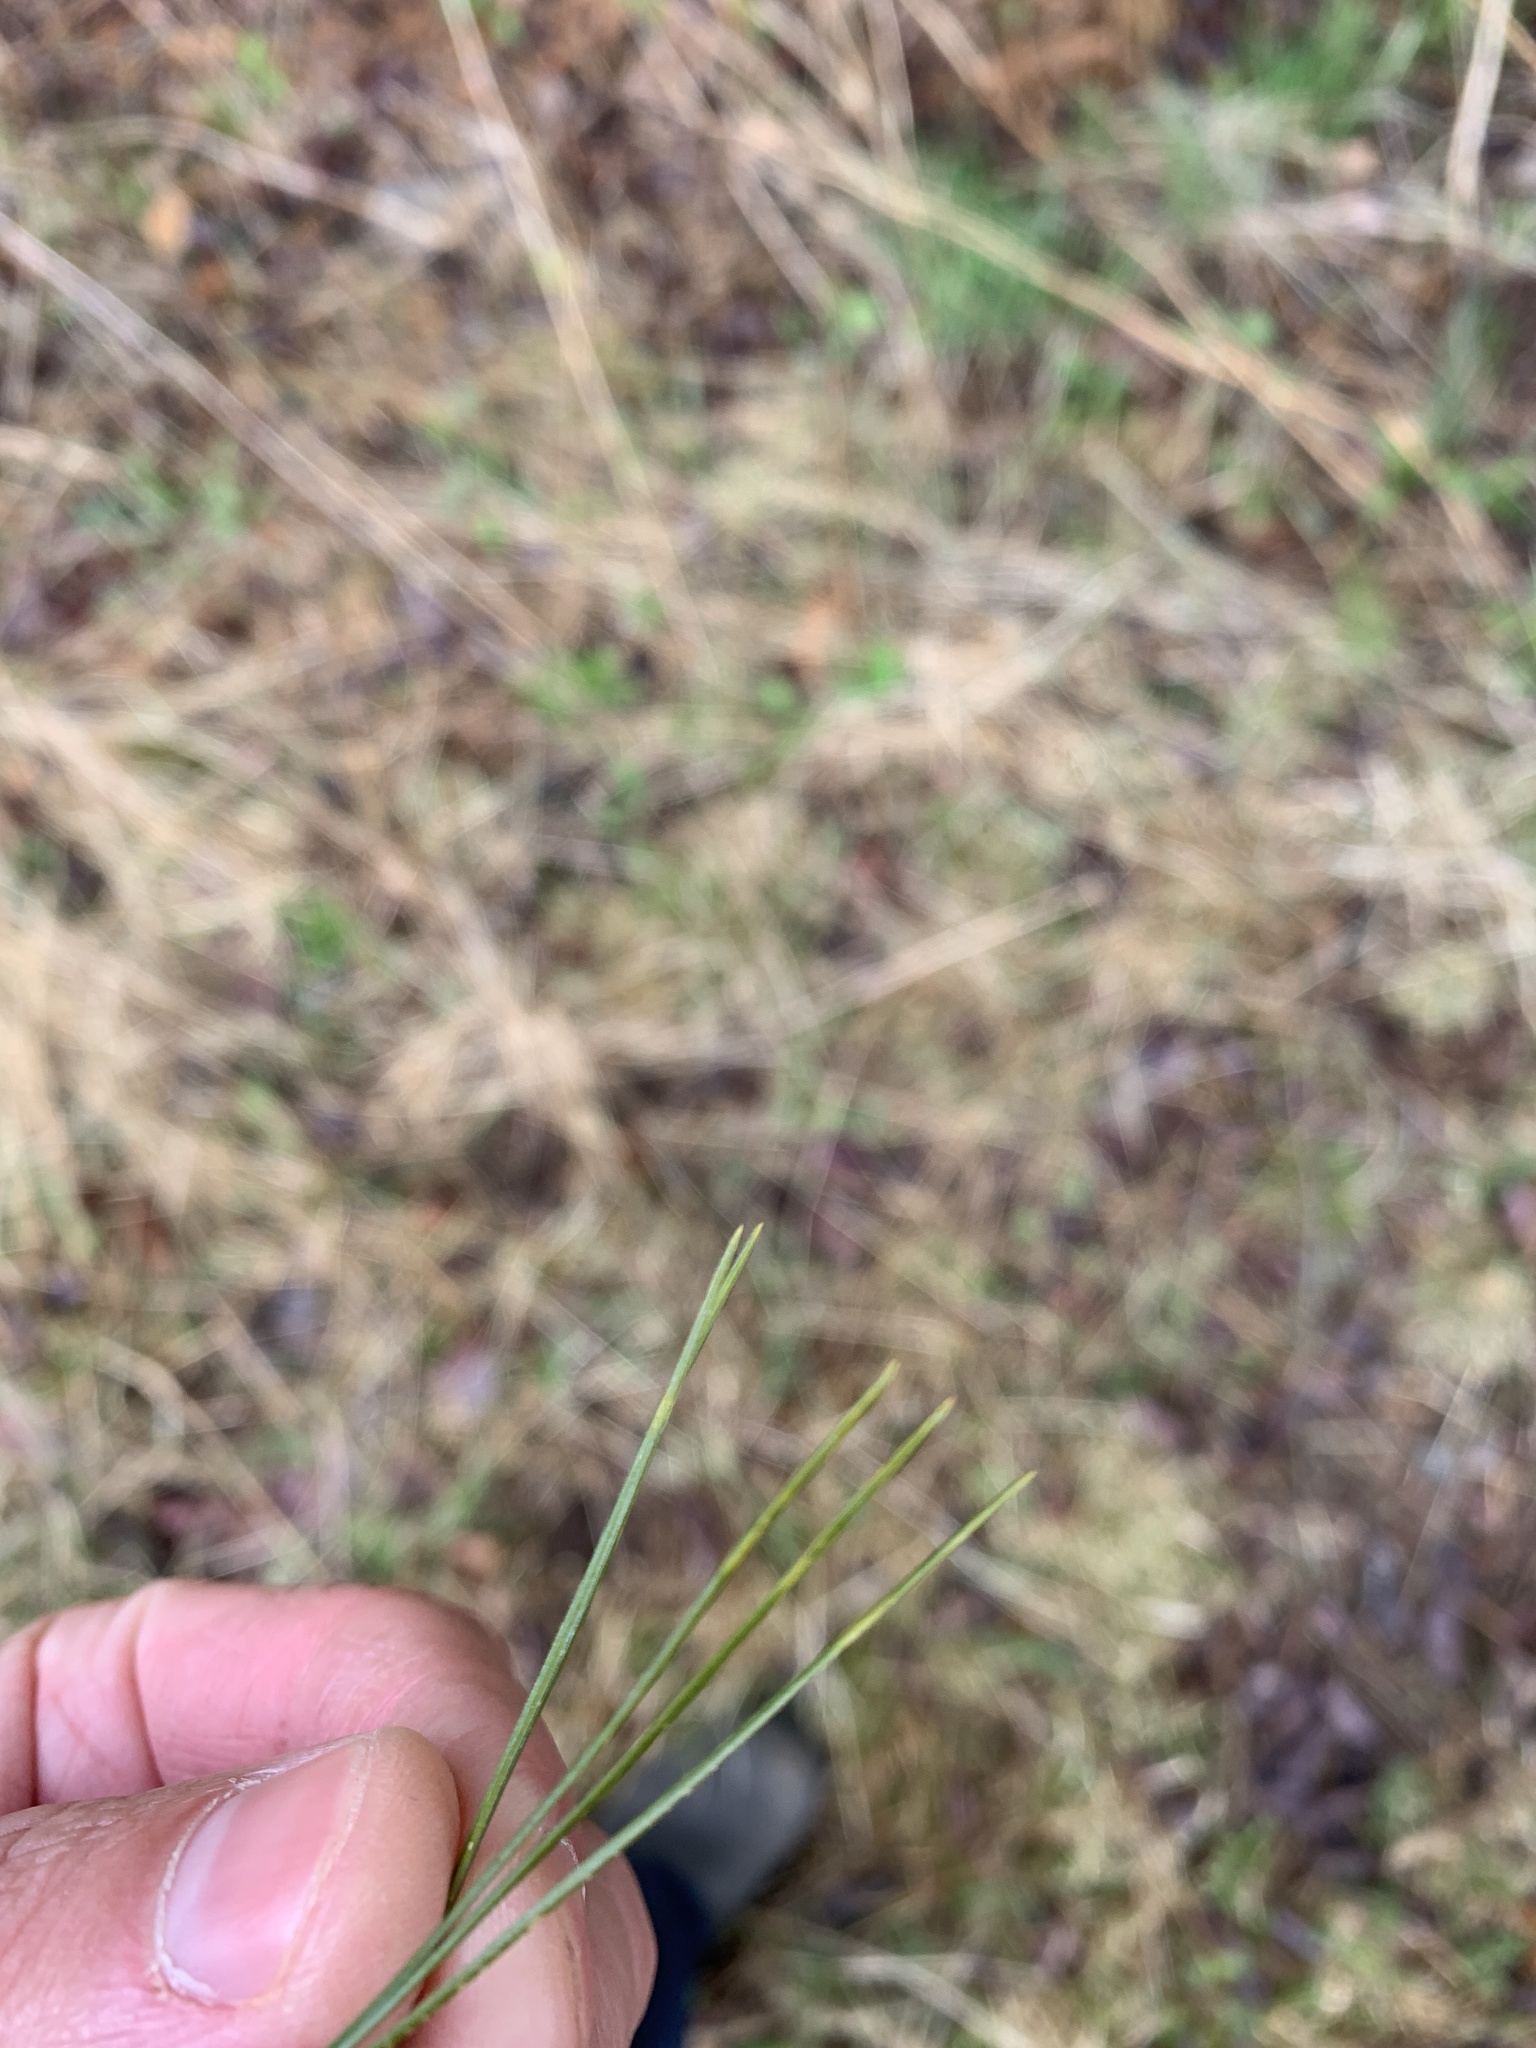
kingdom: Plantae
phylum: Tracheophyta
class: Pinopsida
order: Pinales
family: Pinaceae
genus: Pinus
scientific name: Pinus strobus
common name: Weymouth pine
